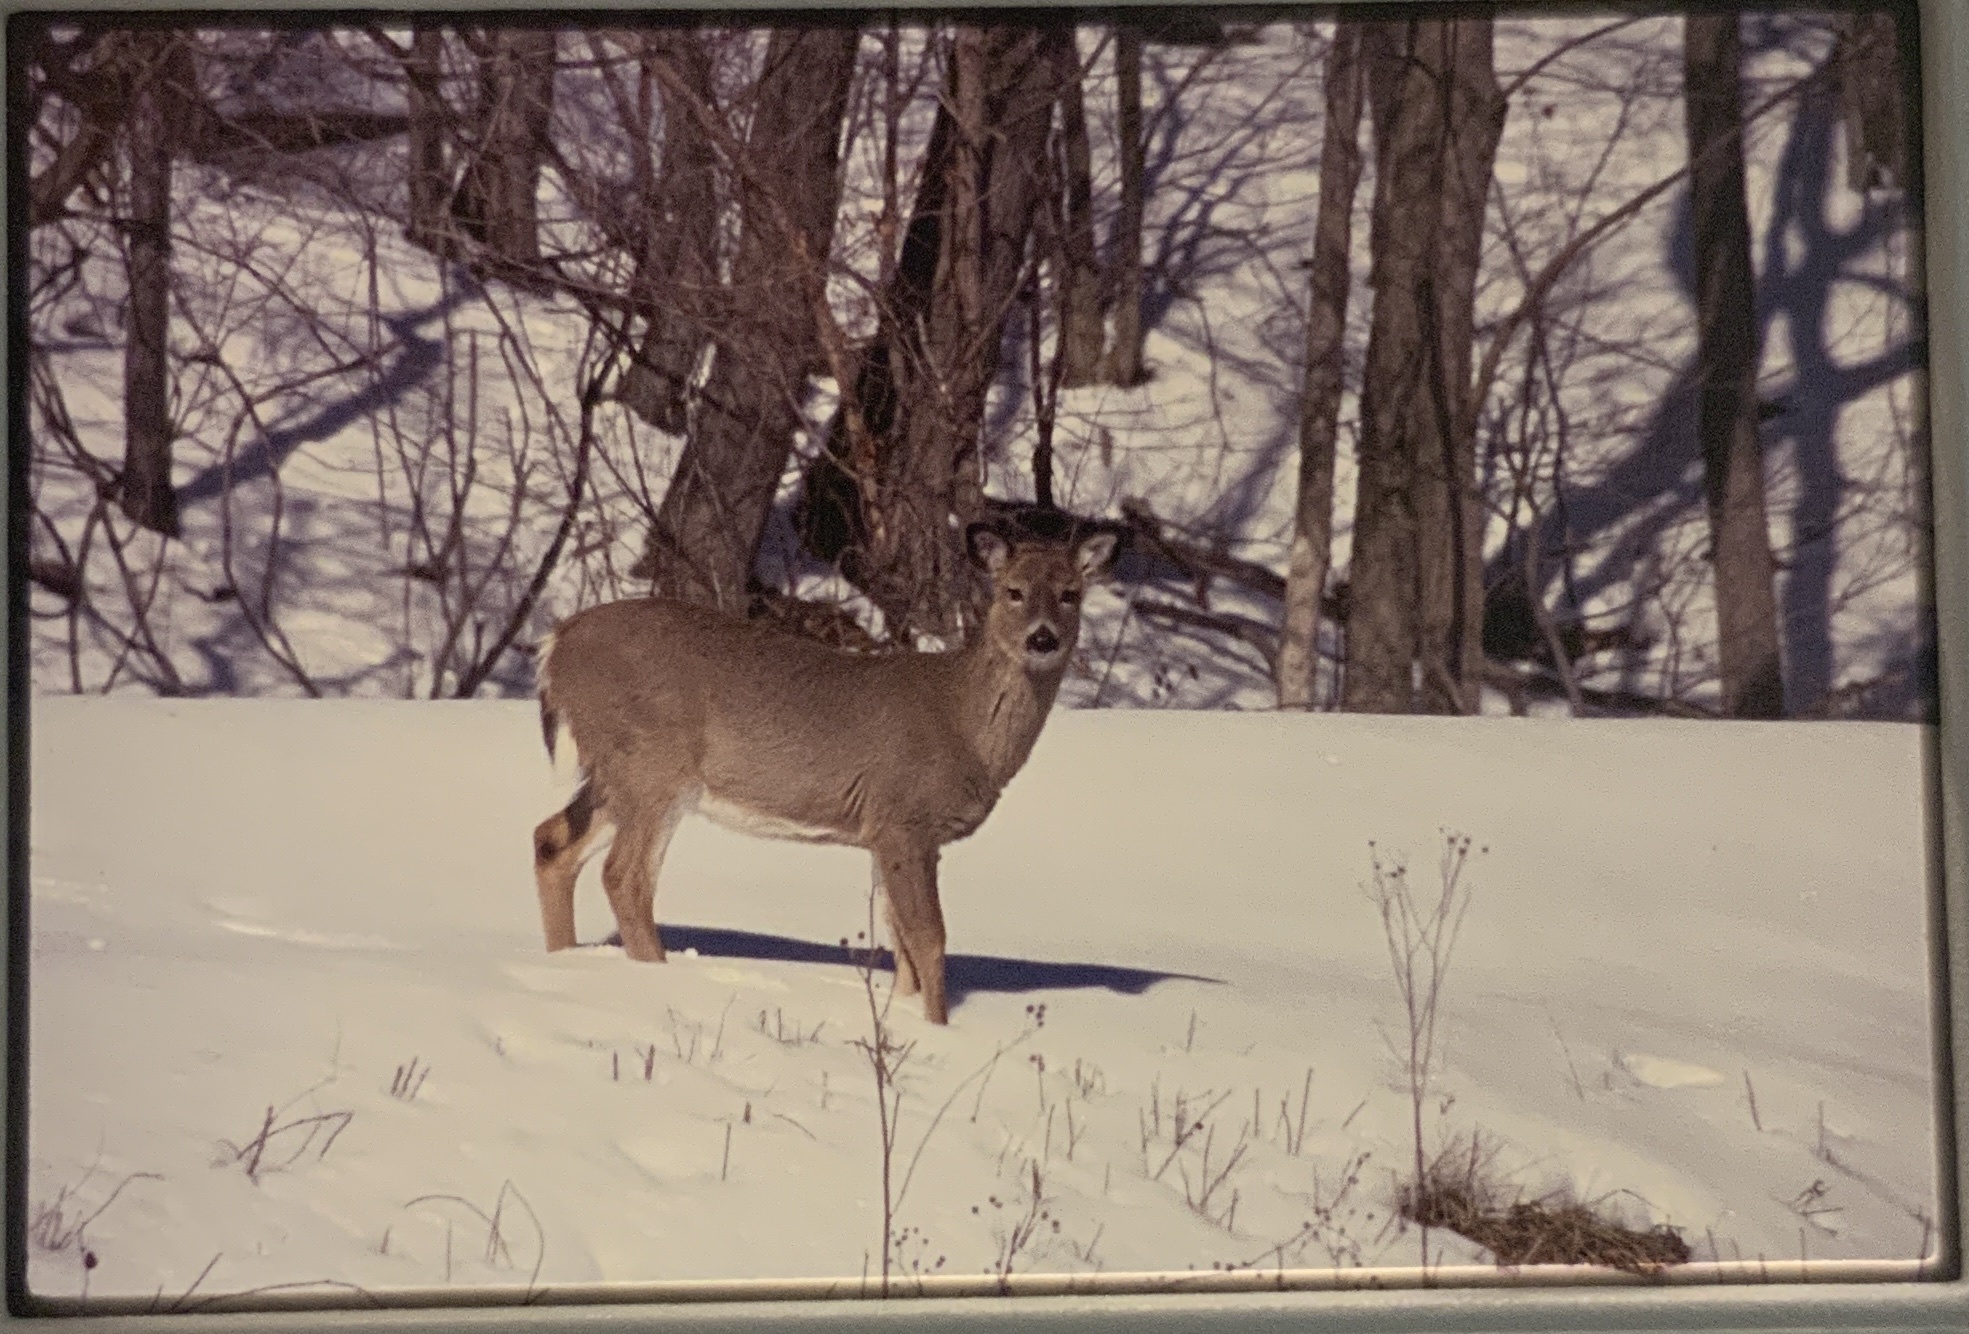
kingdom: Animalia
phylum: Chordata
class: Mammalia
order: Artiodactyla
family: Cervidae
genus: Odocoileus
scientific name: Odocoileus virginianus
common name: White-tailed deer
